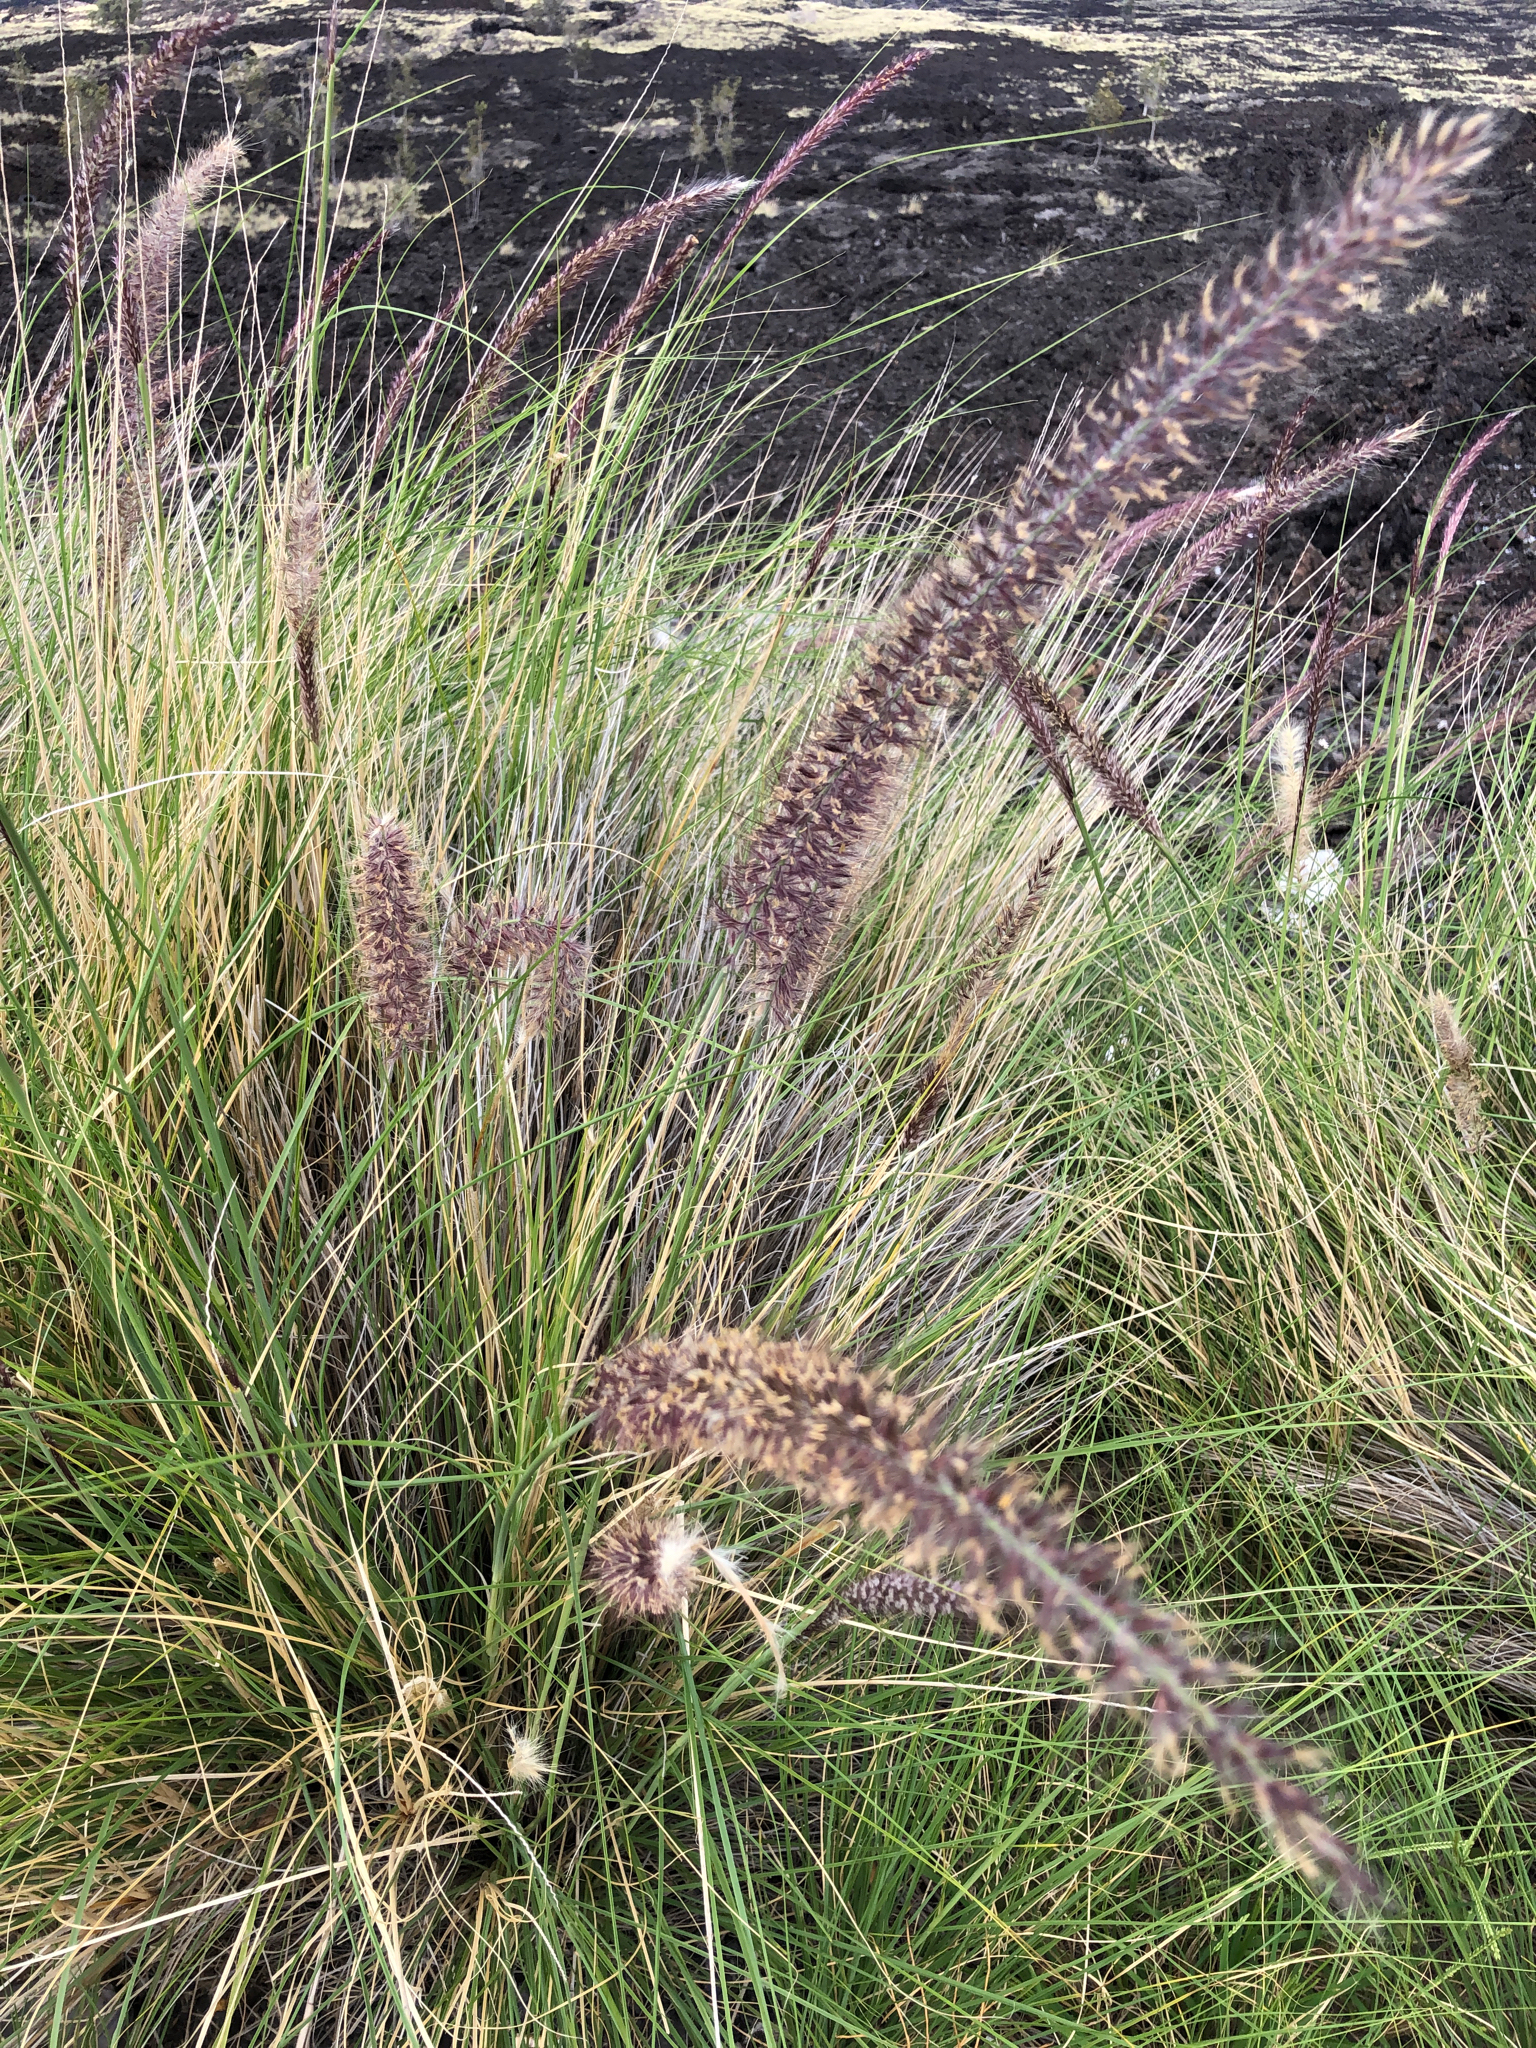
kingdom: Plantae
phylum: Tracheophyta
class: Liliopsida
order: Poales
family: Poaceae
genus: Cenchrus
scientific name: Cenchrus setaceus
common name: Crimson fountaingrass
